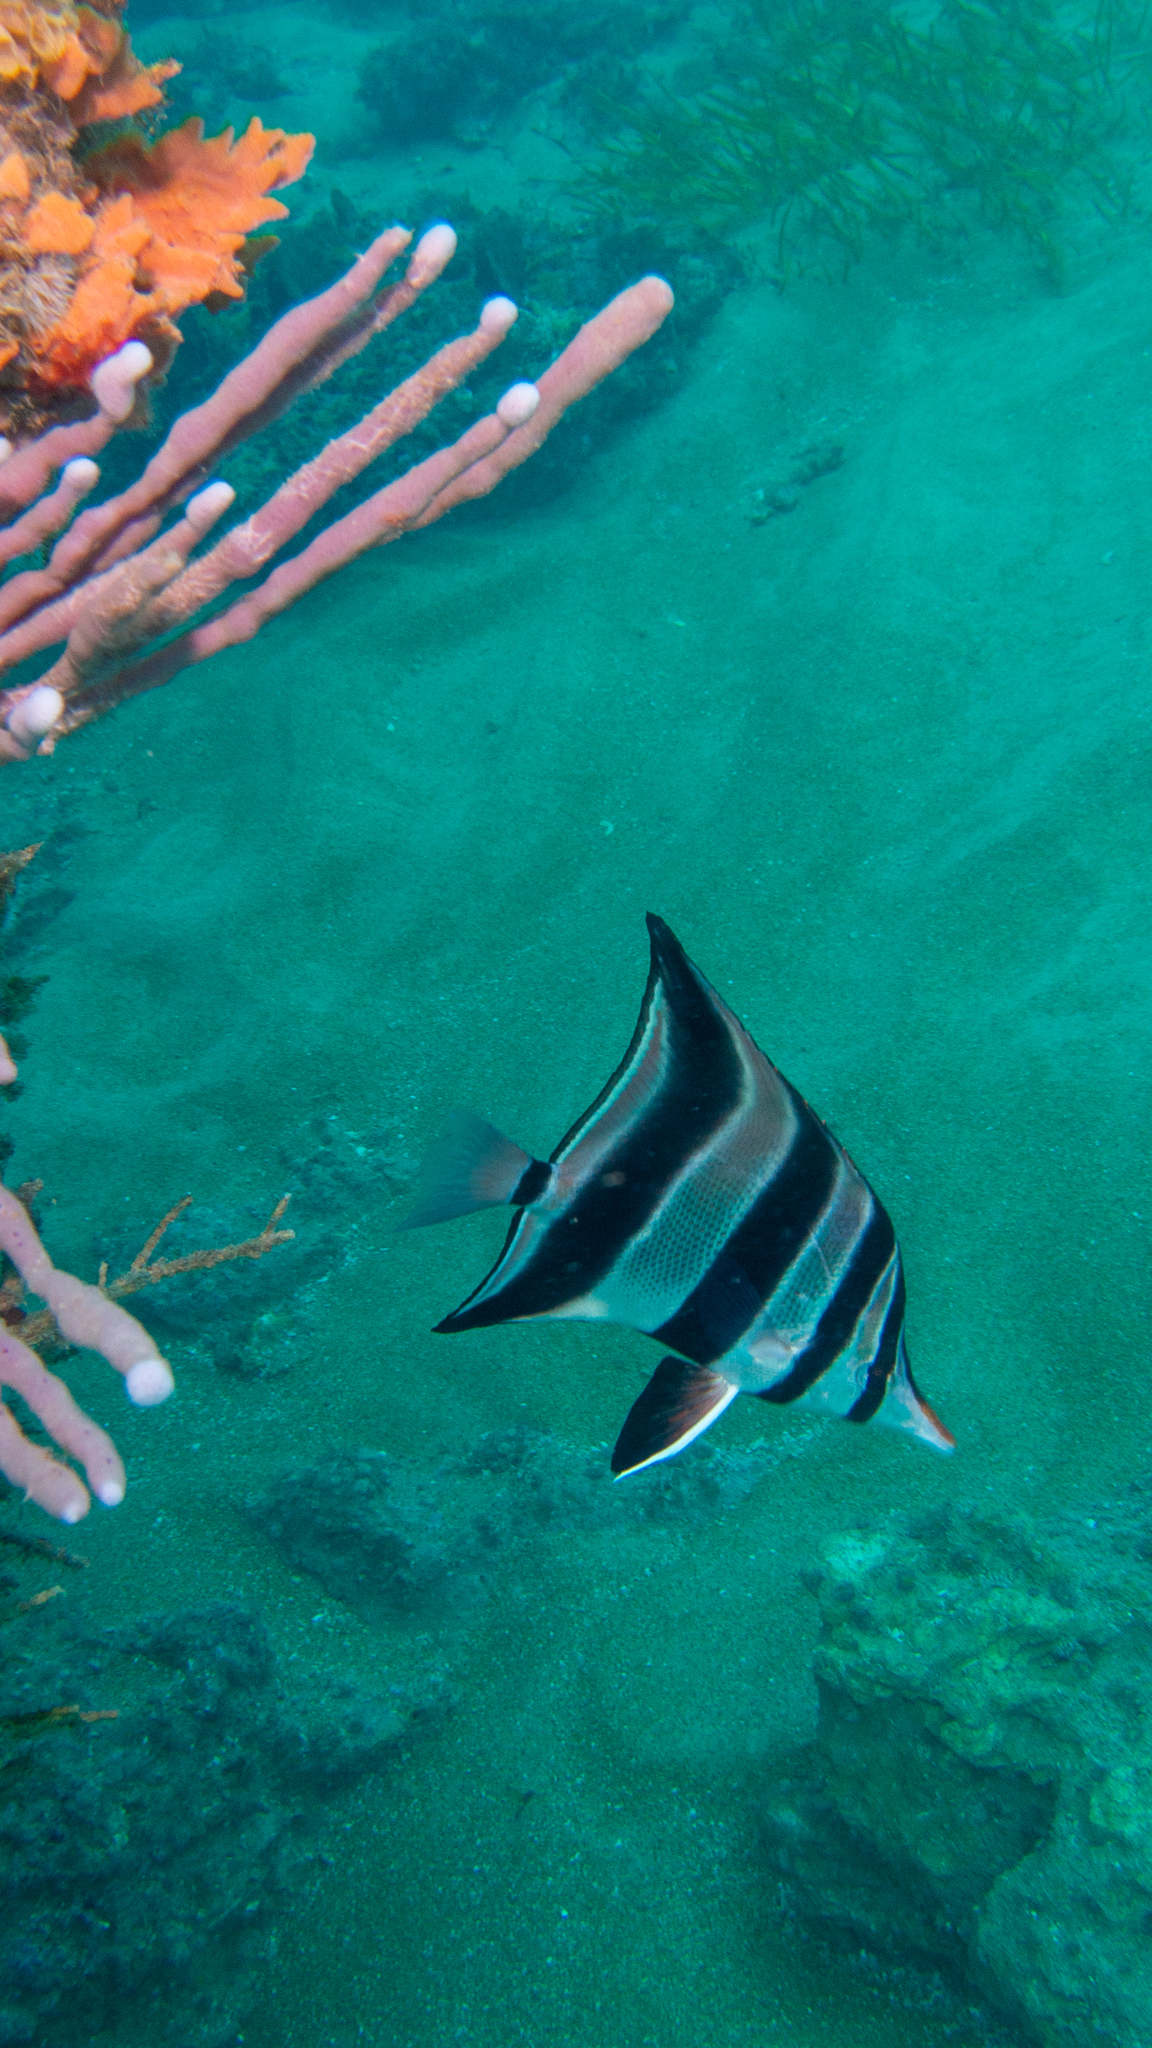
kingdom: Animalia
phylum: Chordata
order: Perciformes
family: Chaetodontidae
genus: Chelmonops
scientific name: Chelmonops curiosus
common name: Western talma
